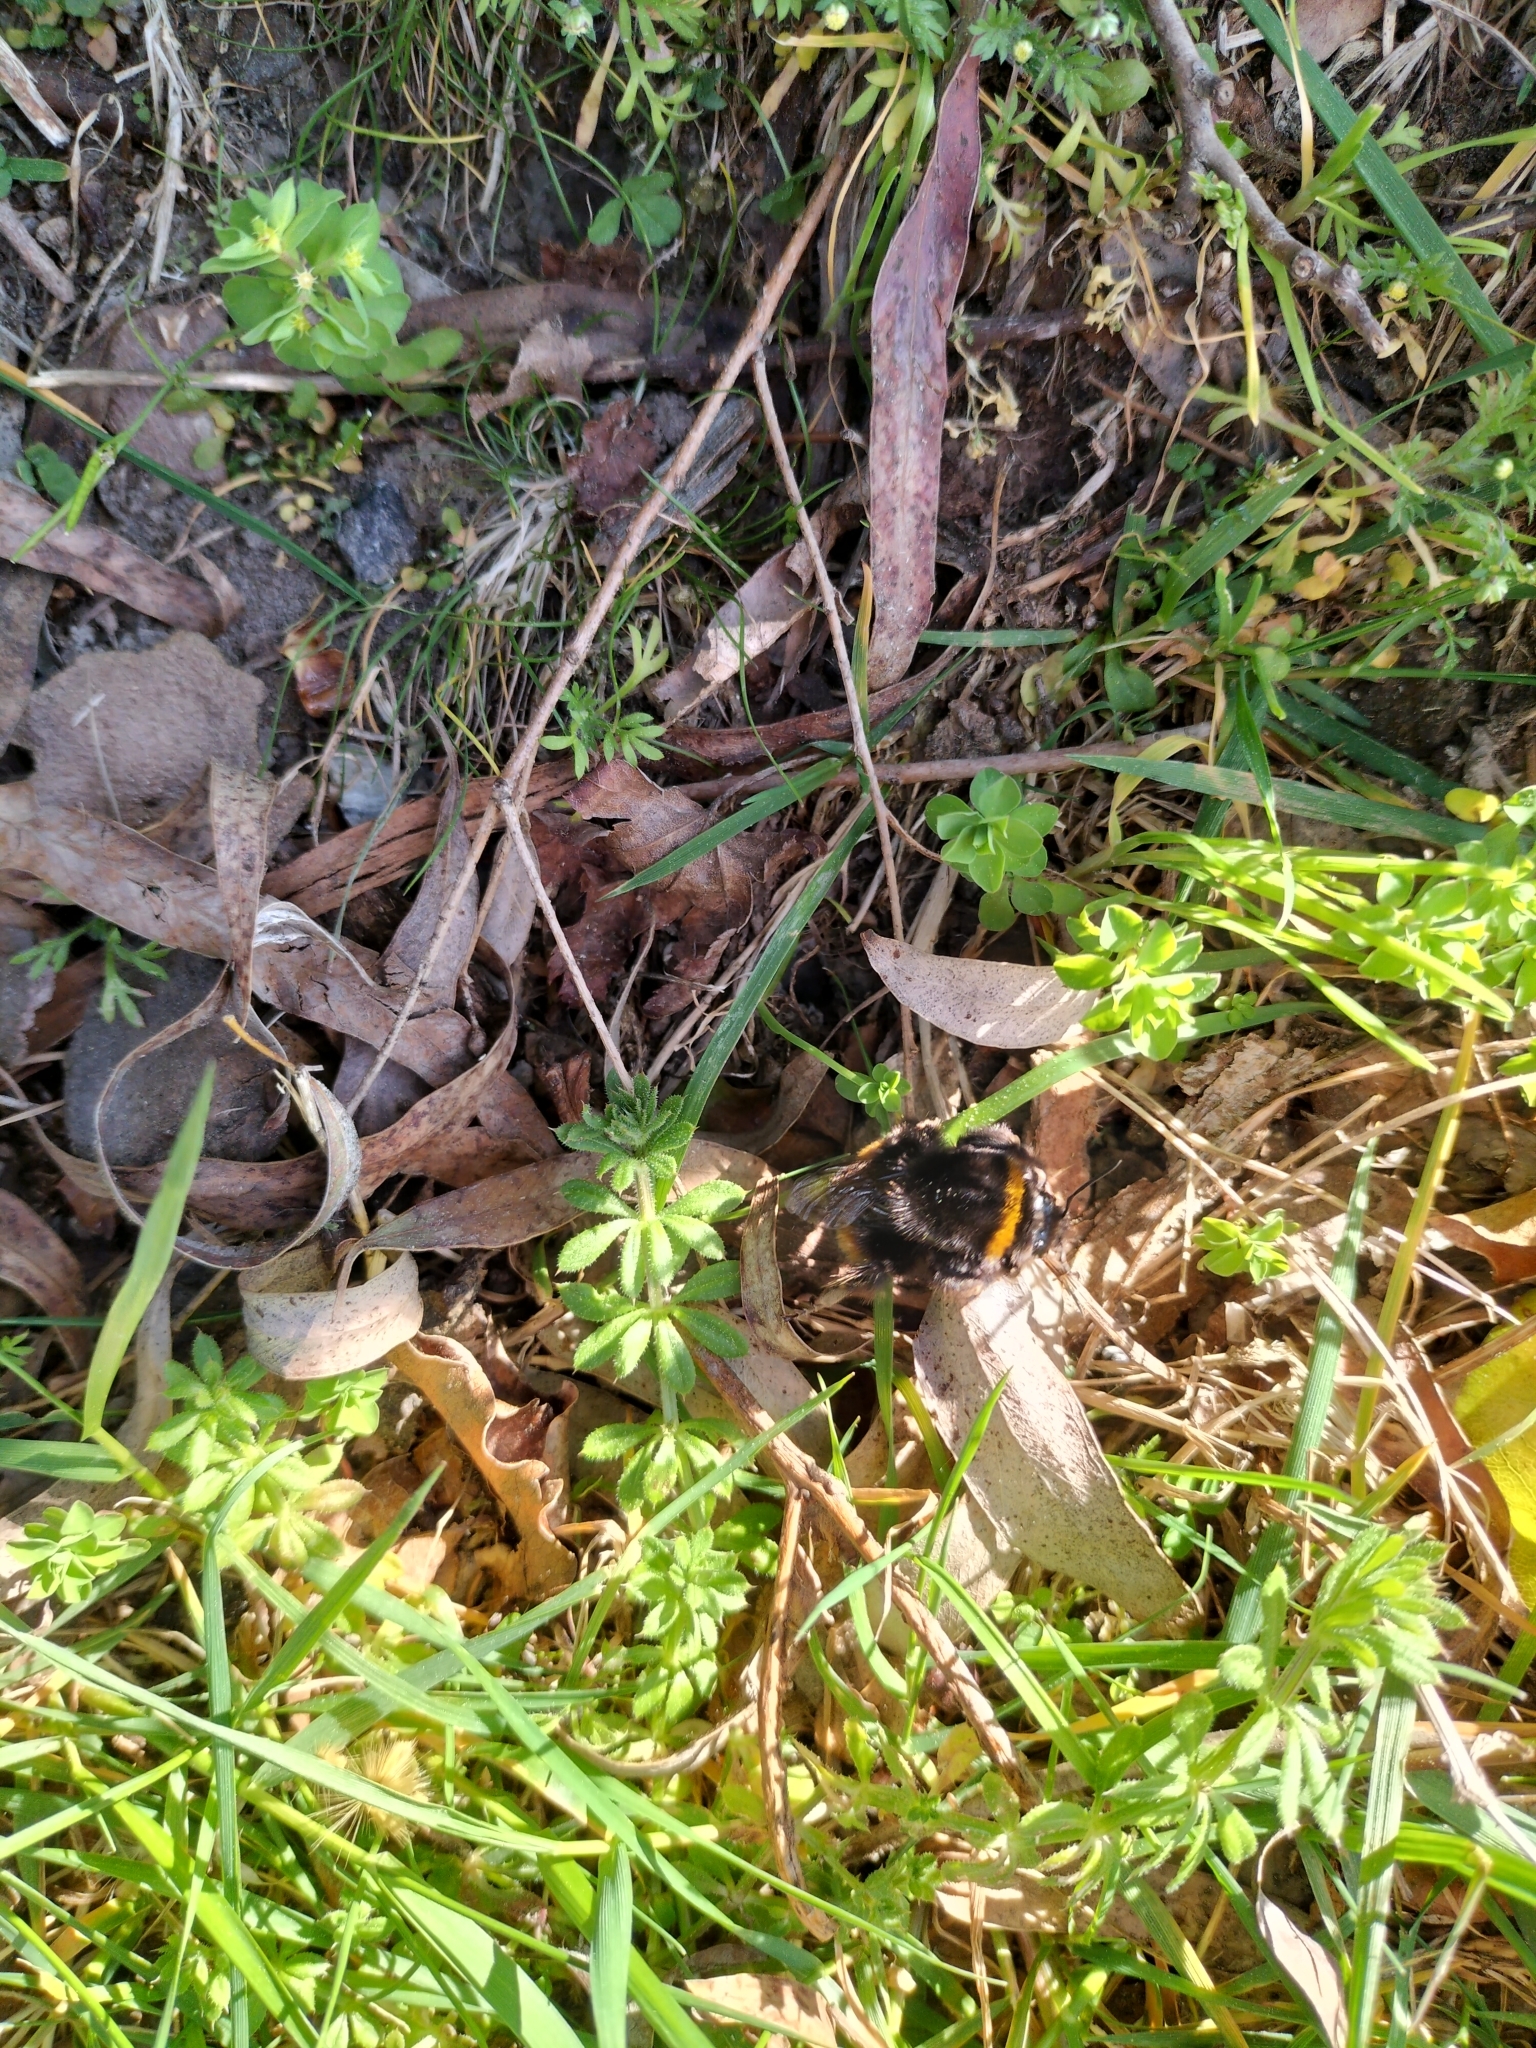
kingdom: Animalia
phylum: Arthropoda
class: Insecta
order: Hymenoptera
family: Apidae
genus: Bombus
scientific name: Bombus terrestris
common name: Buff-tailed bumblebee
